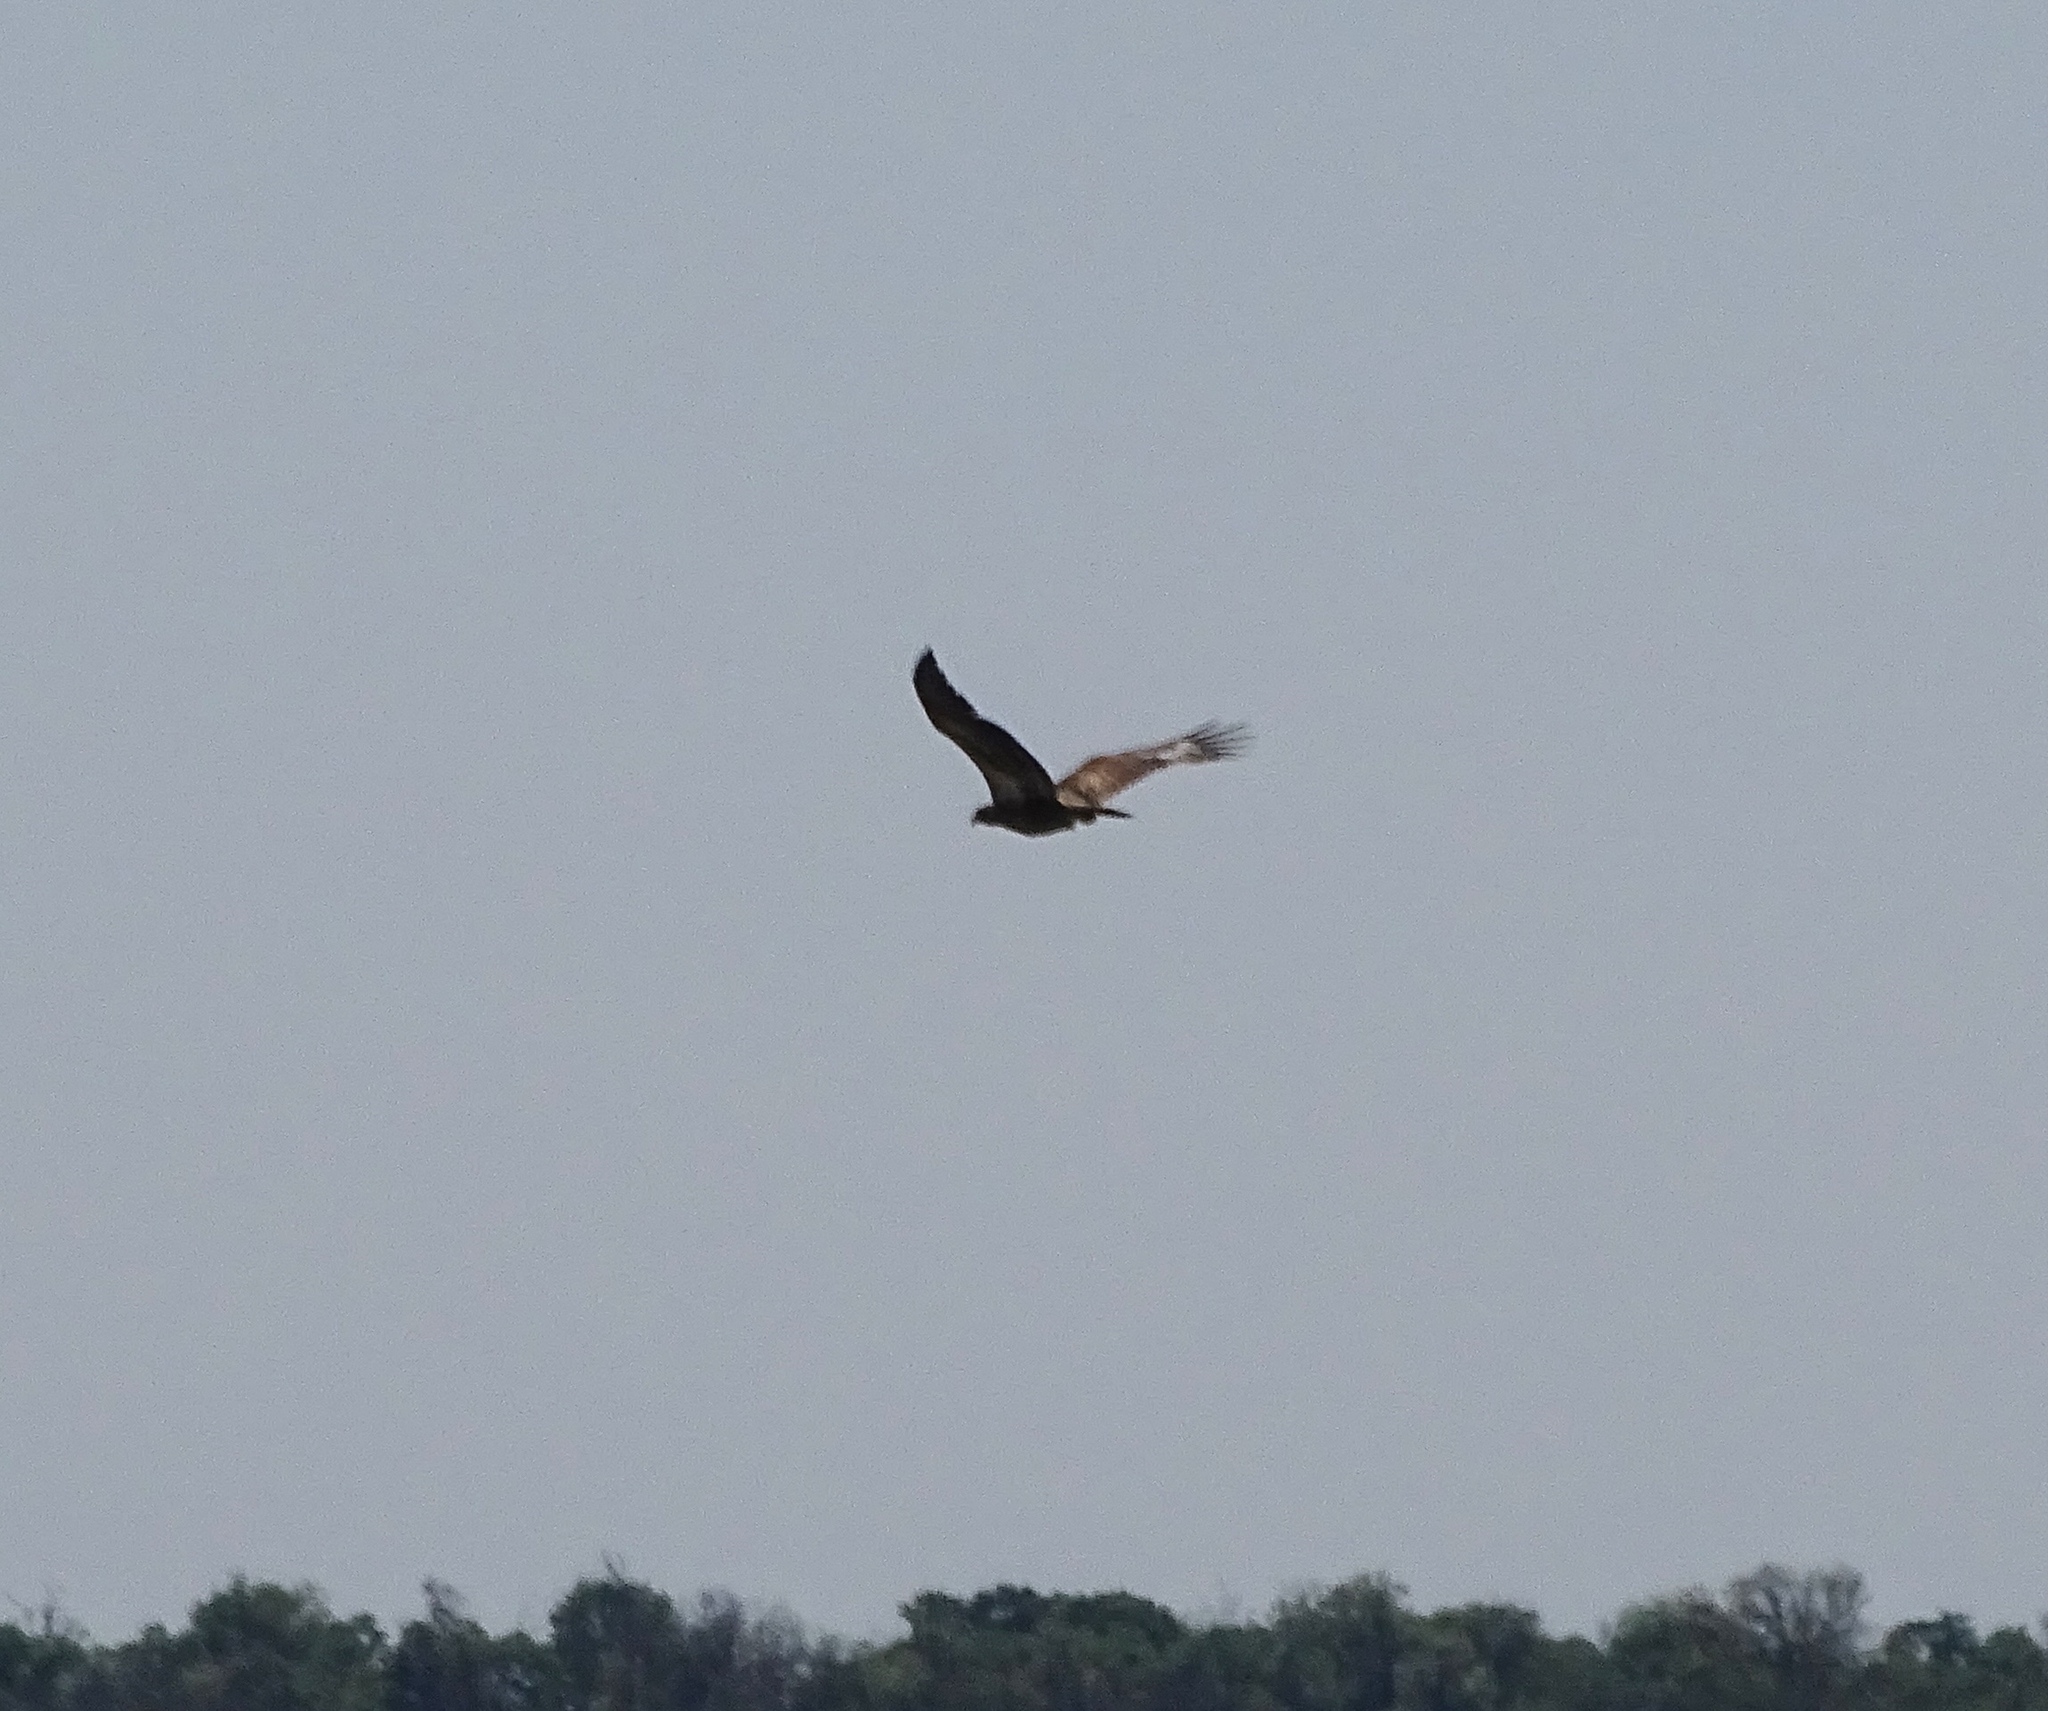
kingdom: Animalia
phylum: Chordata
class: Aves
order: Accipitriformes
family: Accipitridae
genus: Haliaeetus
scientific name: Haliaeetus leucocephalus
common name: Bald eagle
